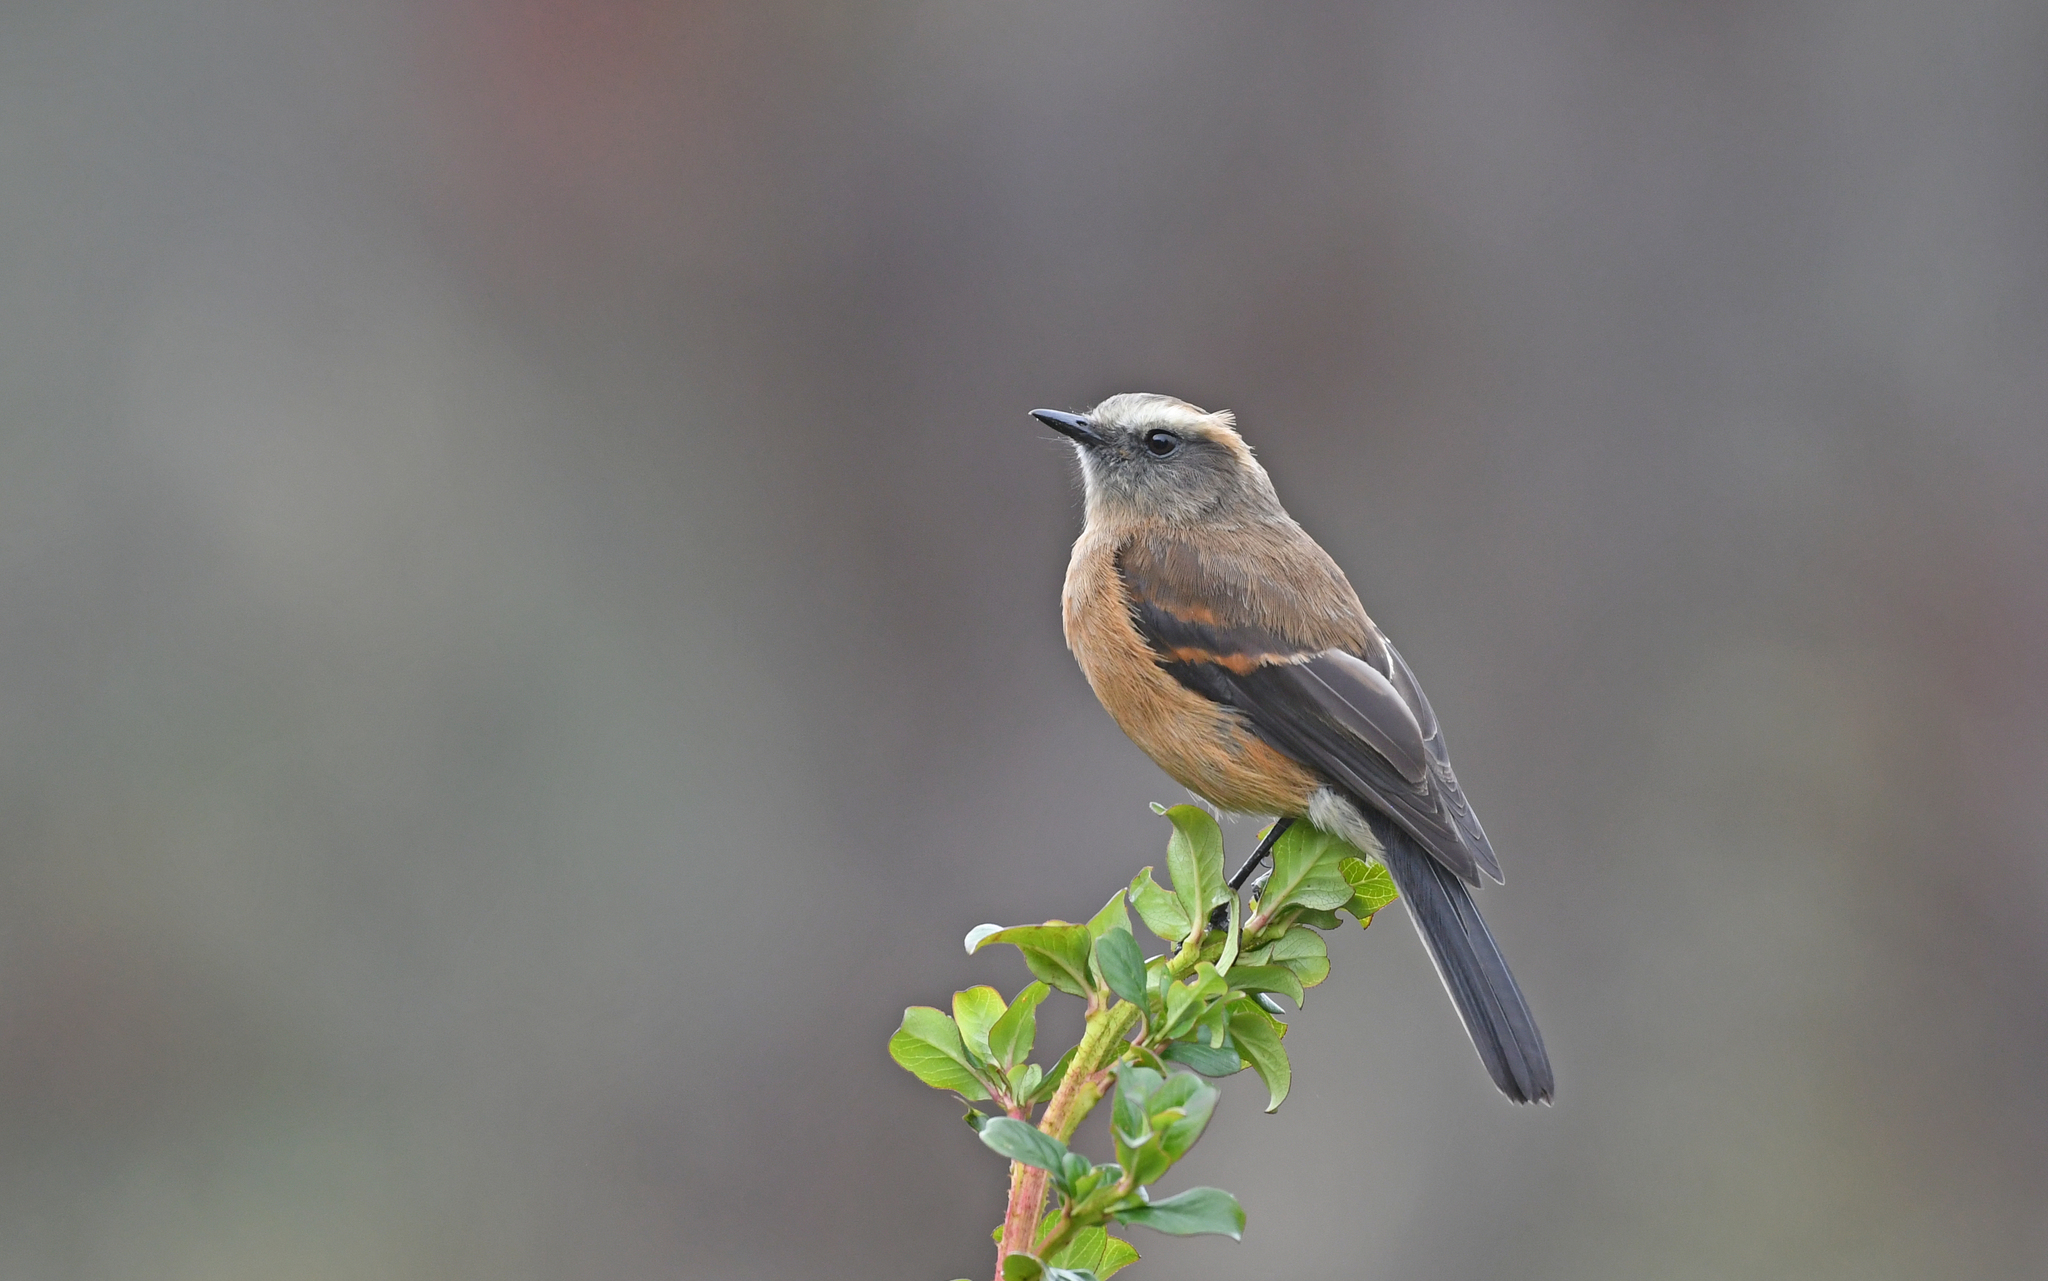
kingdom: Animalia
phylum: Chordata
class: Aves
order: Passeriformes
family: Tyrannidae
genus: Ochthoeca
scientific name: Ochthoeca fumicolor
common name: Brown-backed chat-tyrant
